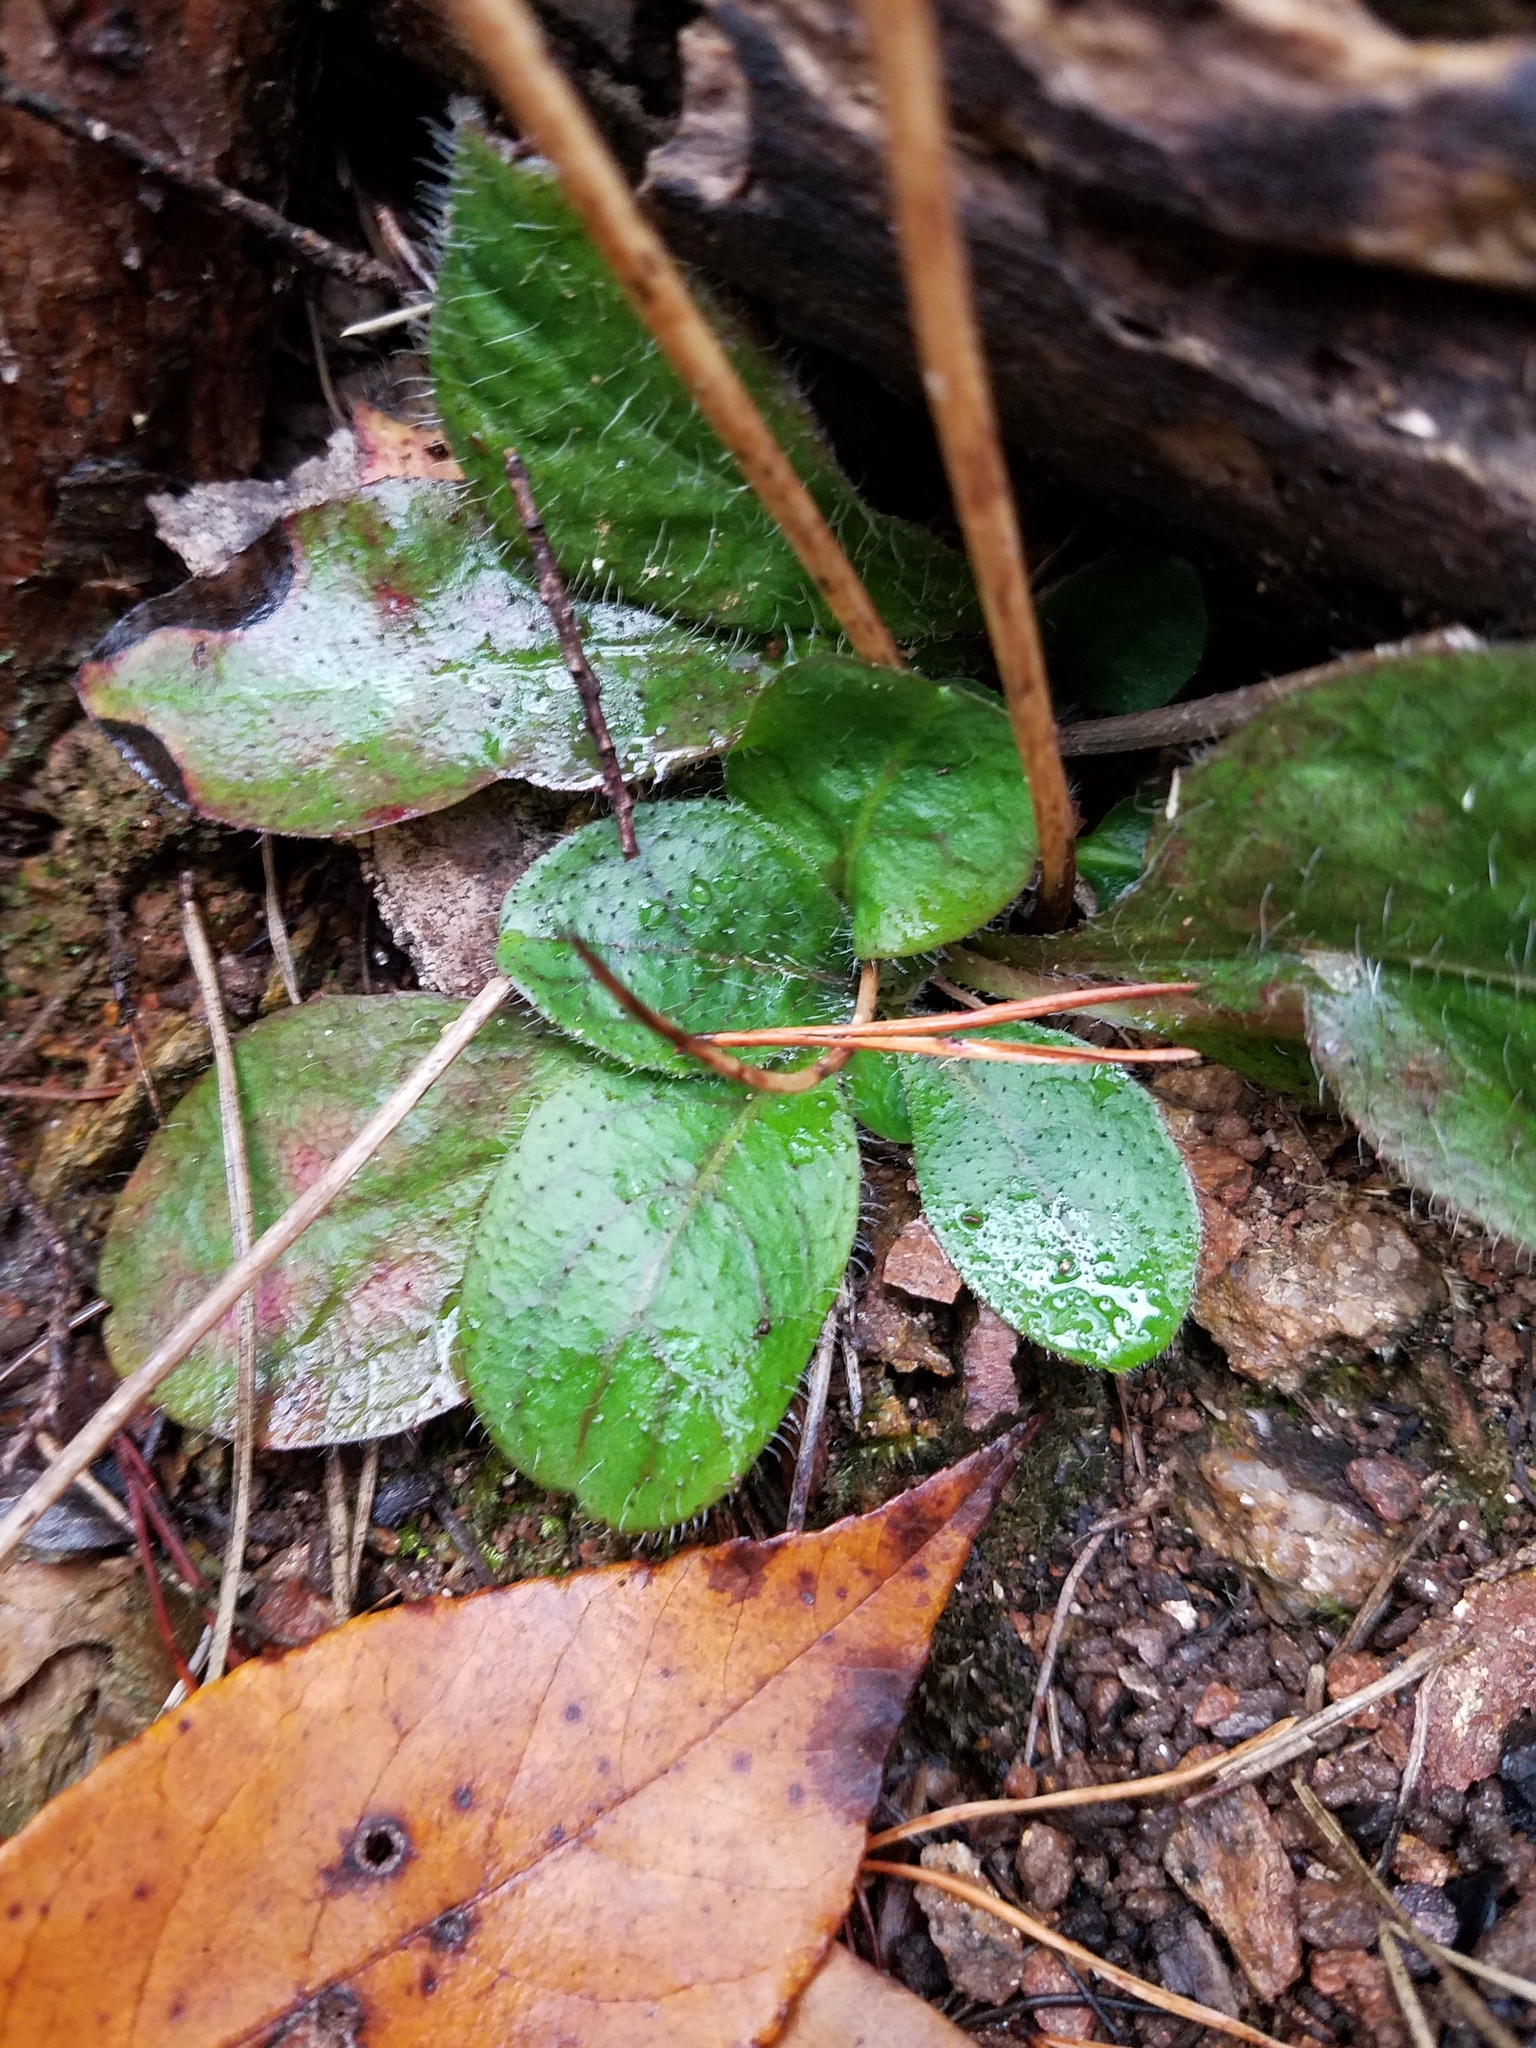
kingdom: Plantae
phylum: Tracheophyta
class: Magnoliopsida
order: Asterales
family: Asteraceae
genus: Hieracium
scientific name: Hieracium venosum
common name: Rattlesnake hawkweed
